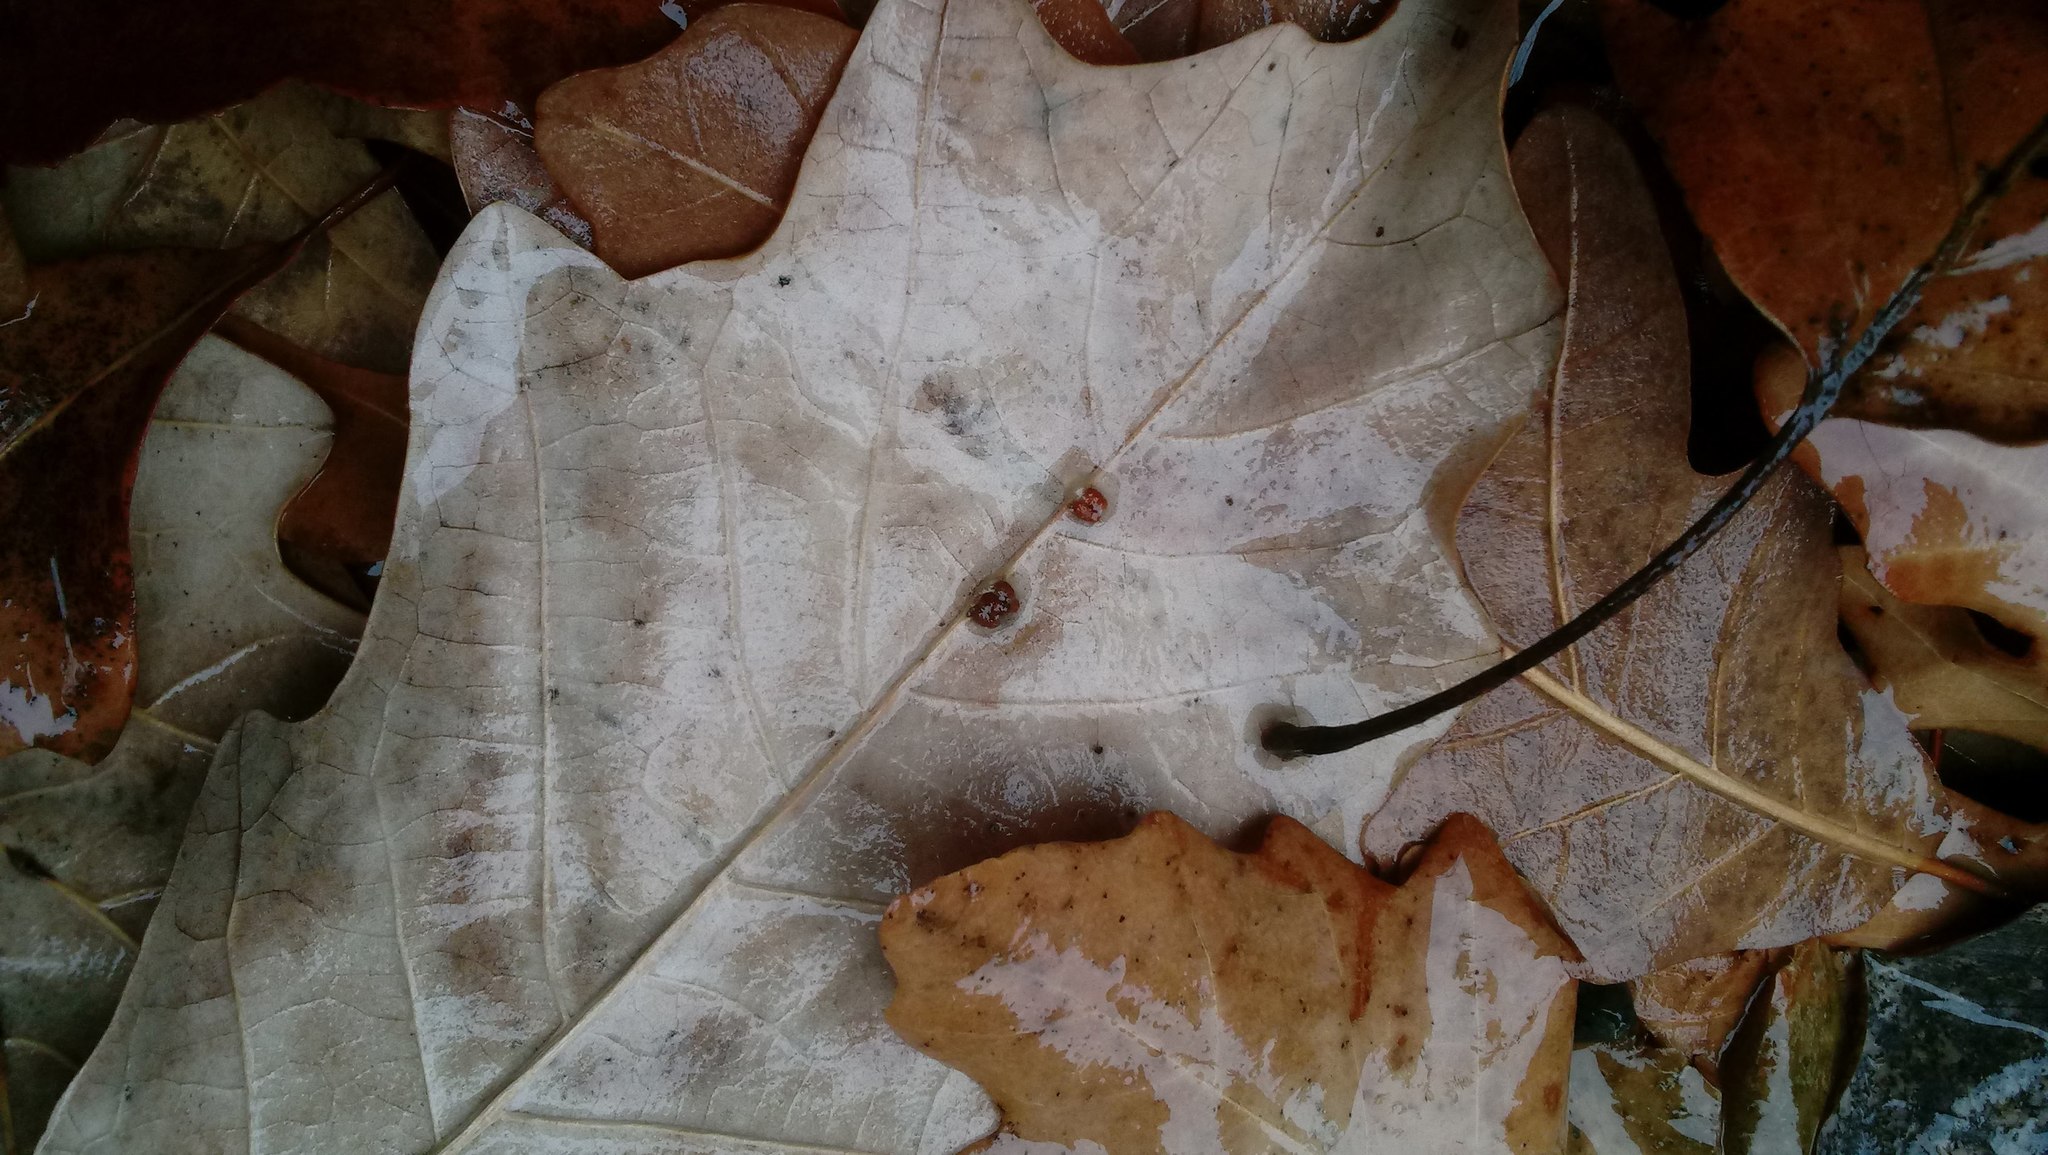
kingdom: Animalia
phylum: Arthropoda
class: Insecta
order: Hymenoptera
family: Cynipidae
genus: Andricus
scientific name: Andricus Druon ignotum
